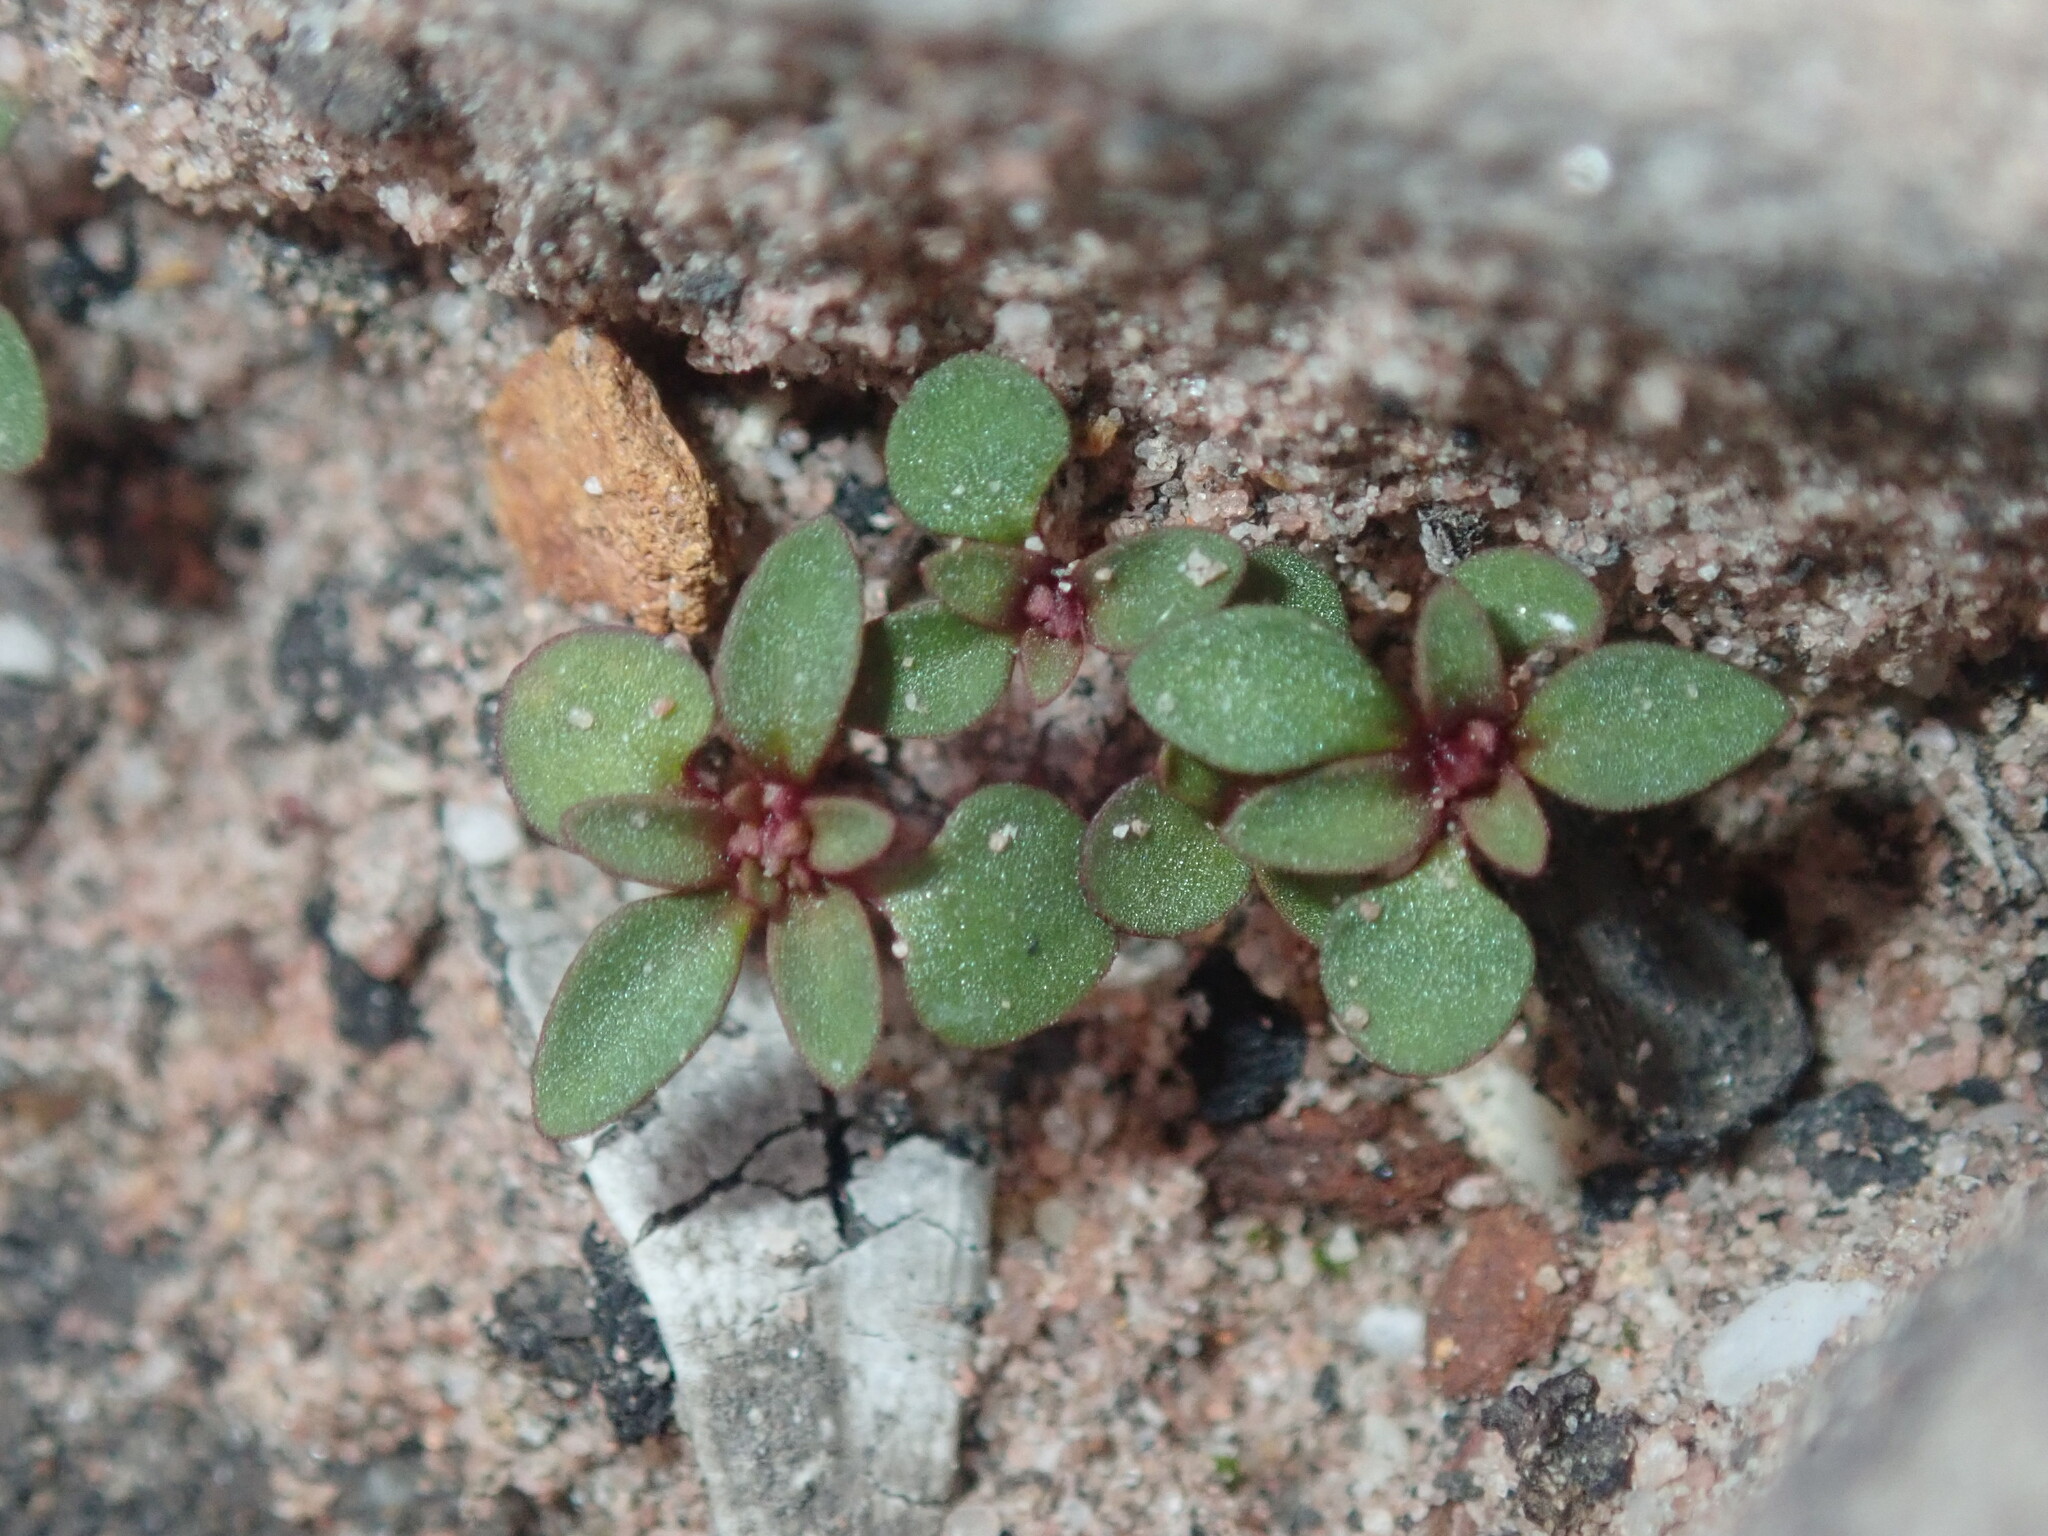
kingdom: Plantae
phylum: Tracheophyta
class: Magnoliopsida
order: Asterales
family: Stylidiaceae
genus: Levenhookia
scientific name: Levenhookia pusilla
